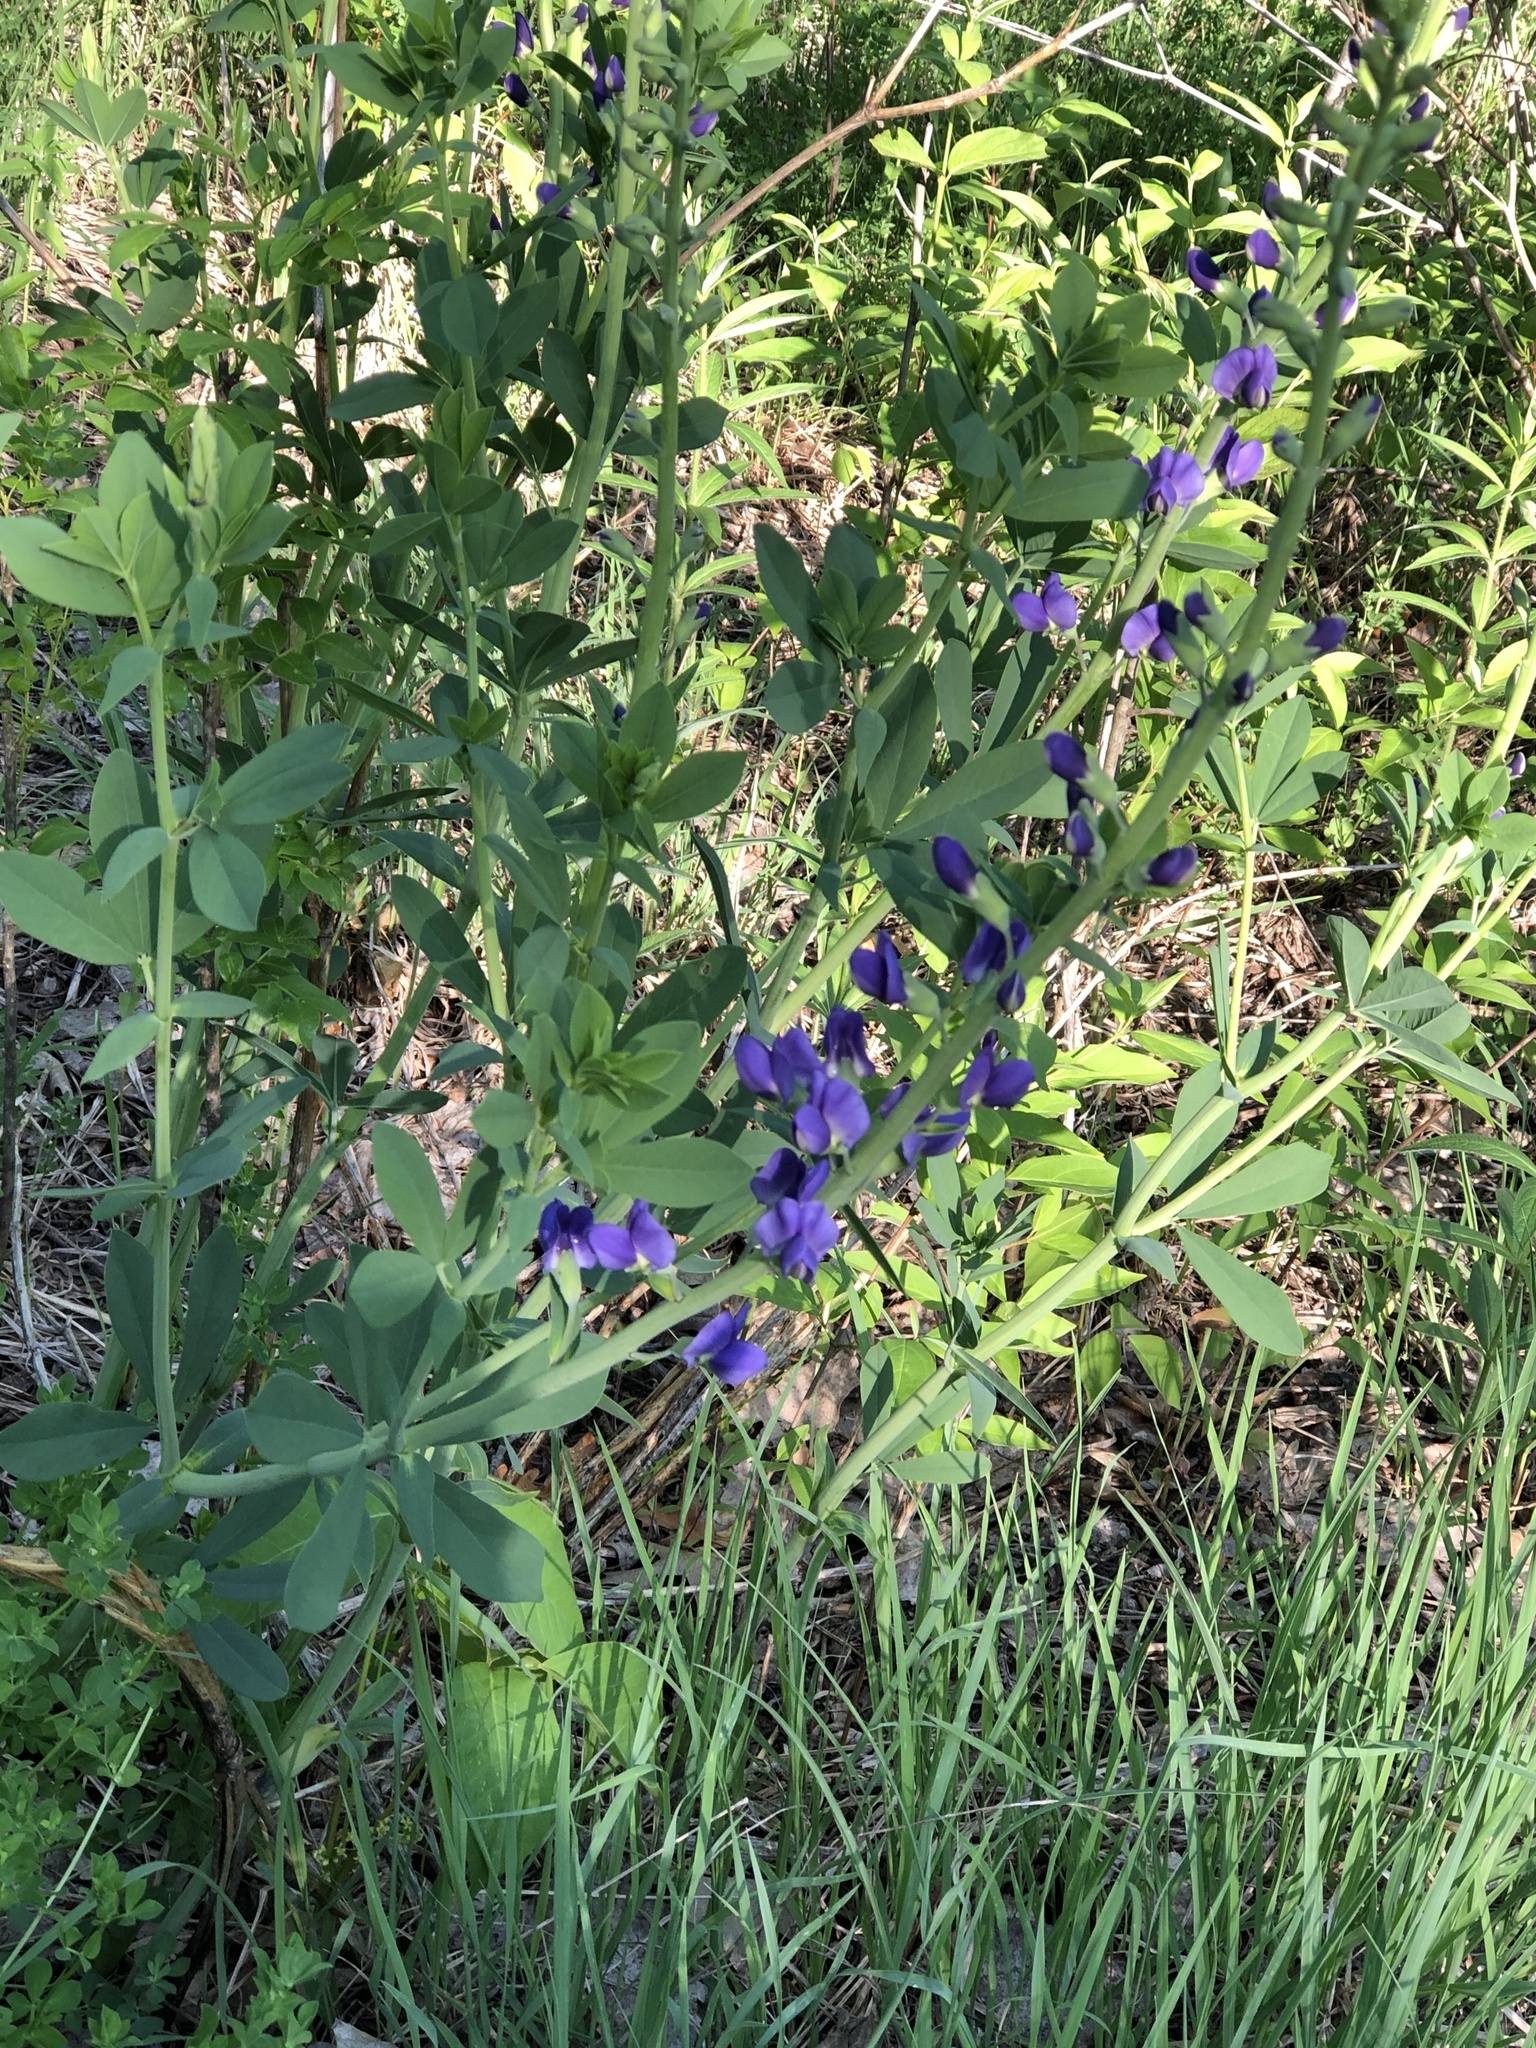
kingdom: Plantae
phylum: Tracheophyta
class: Magnoliopsida
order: Fabales
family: Fabaceae
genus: Baptisia
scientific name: Baptisia australis
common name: Blue false indigo
